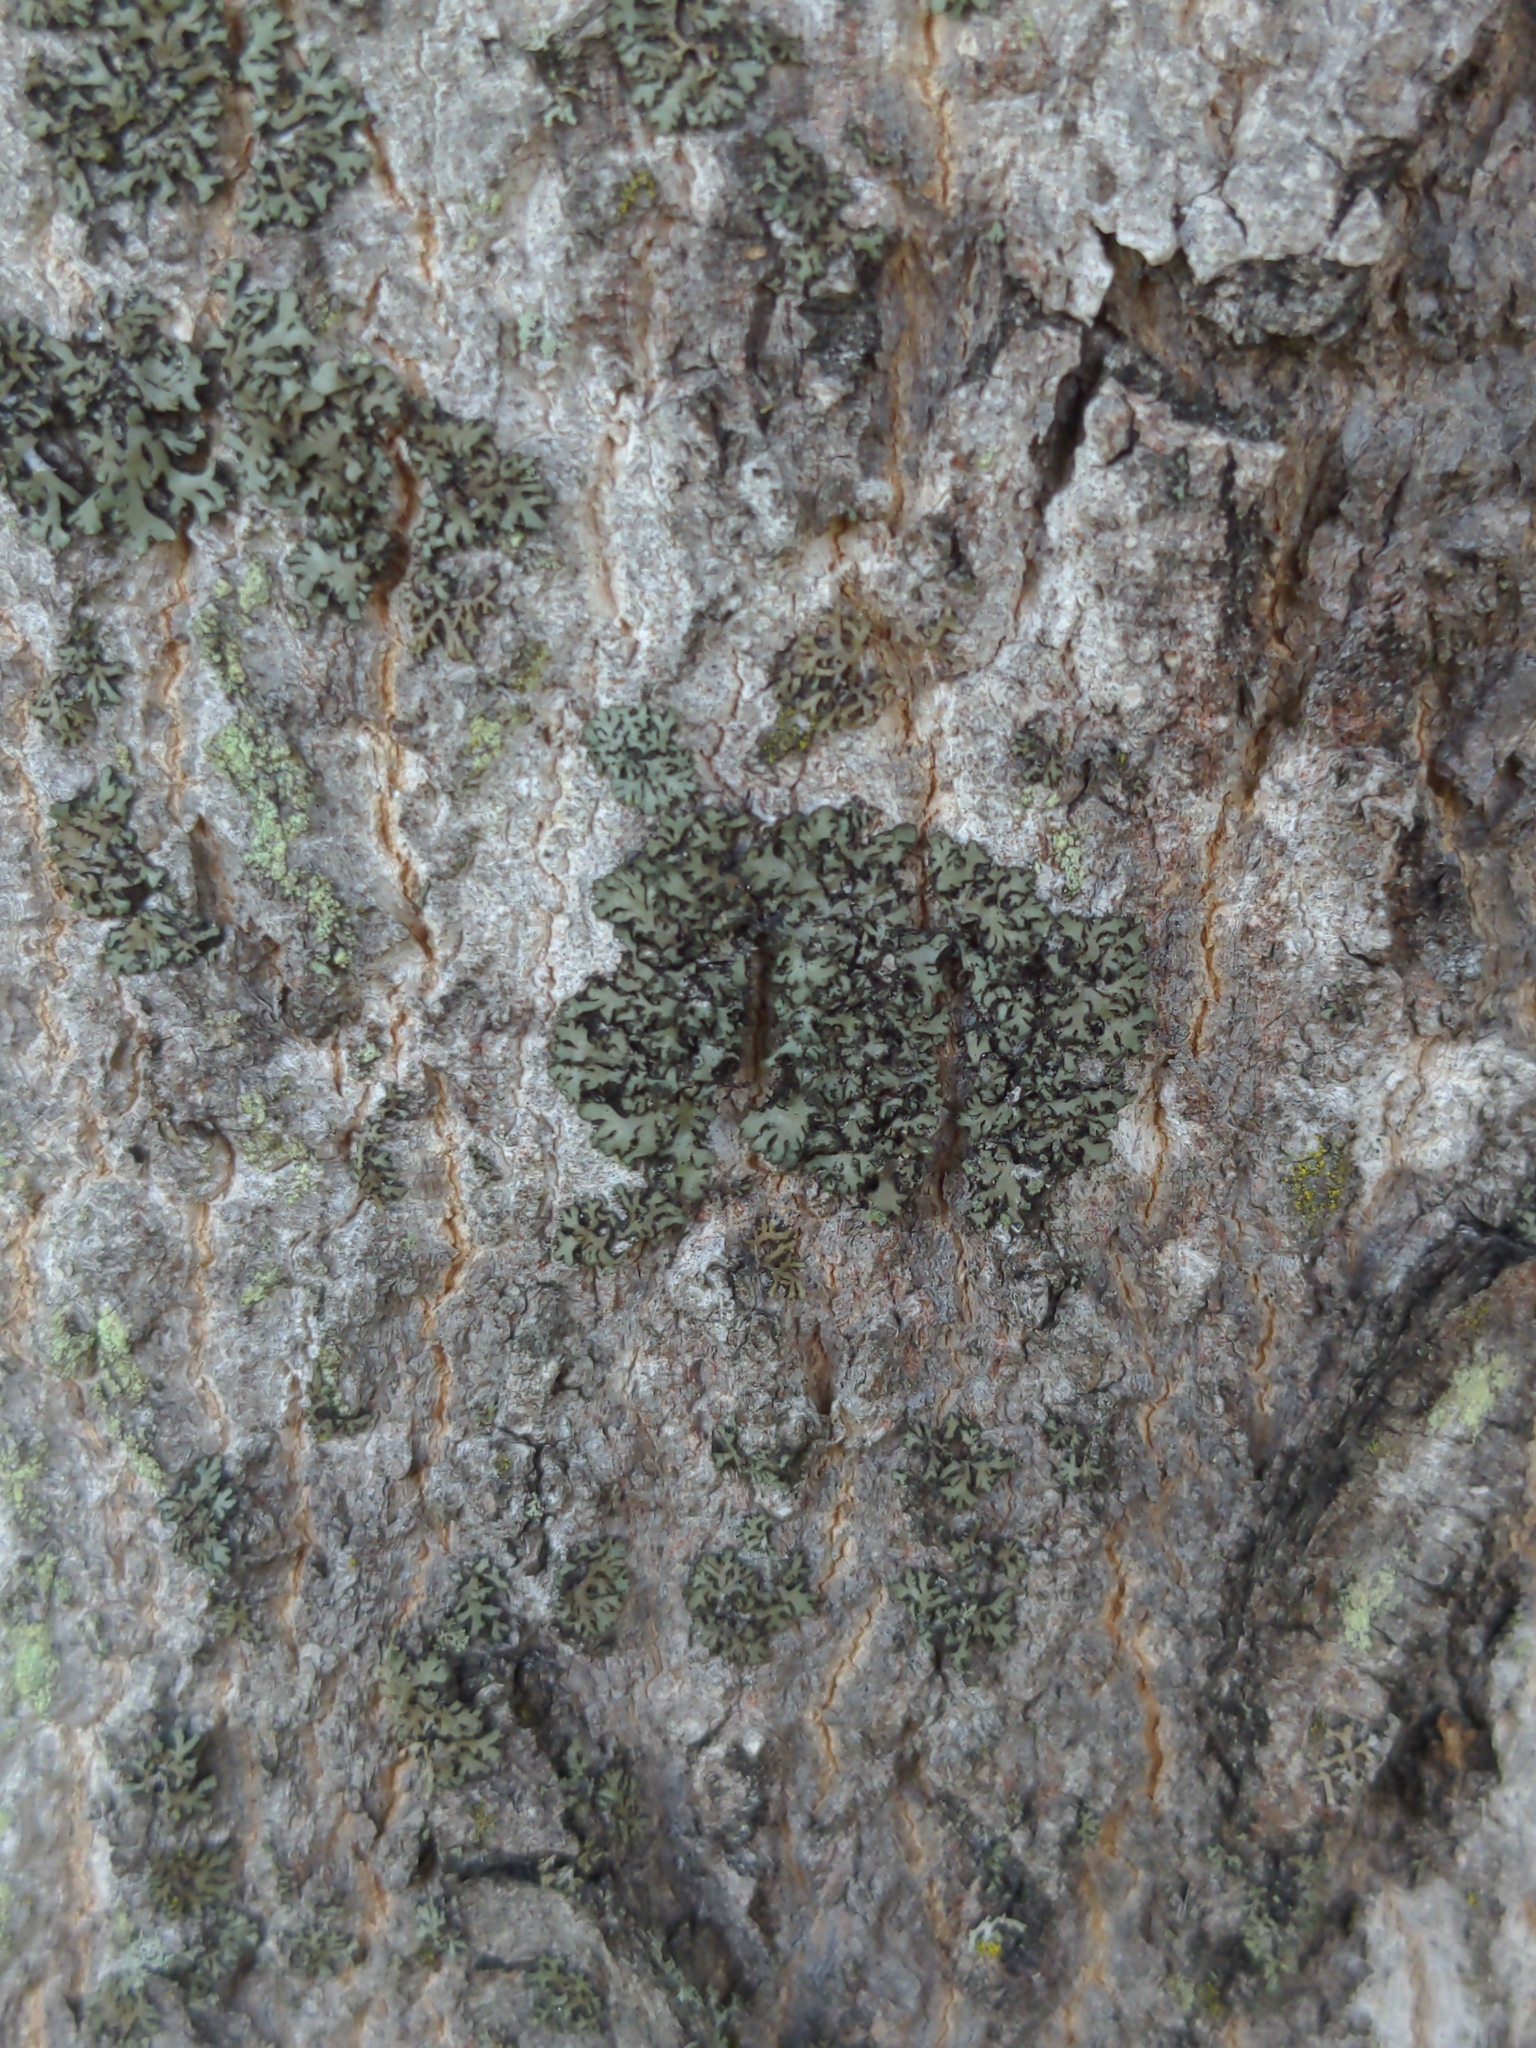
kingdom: Fungi
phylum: Ascomycota
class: Lecanoromycetes
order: Caliciales
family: Physciaceae
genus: Phaeophyscia
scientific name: Phaeophyscia rubropulchra
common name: Orange-cored shadow lichen
